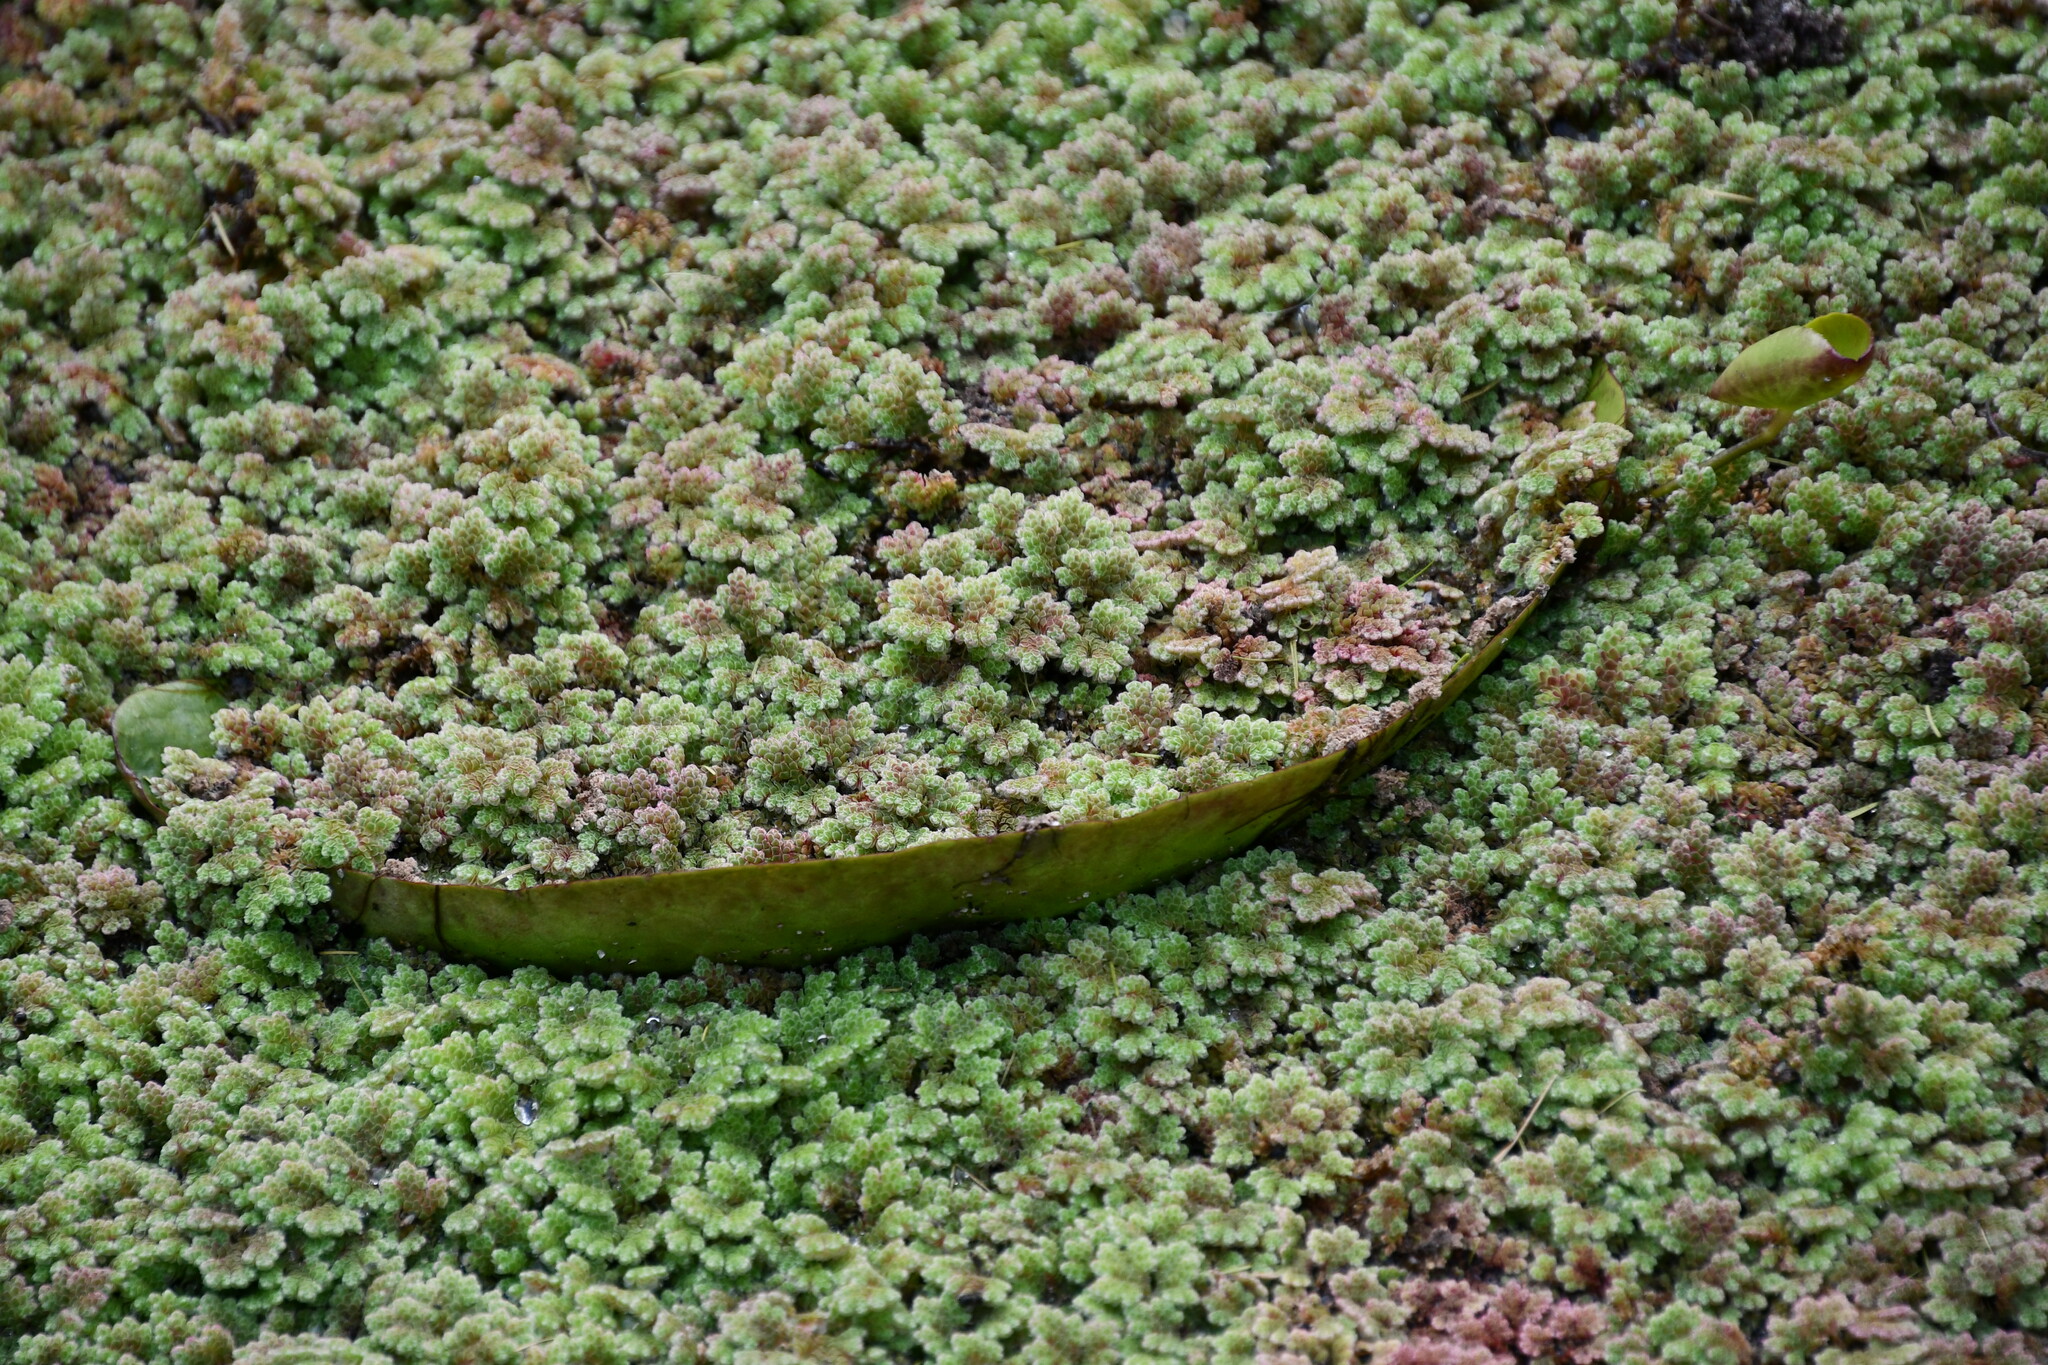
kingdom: Plantae
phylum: Tracheophyta
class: Polypodiopsida
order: Salviniales
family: Salviniaceae
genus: Azolla
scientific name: Azolla rubra
